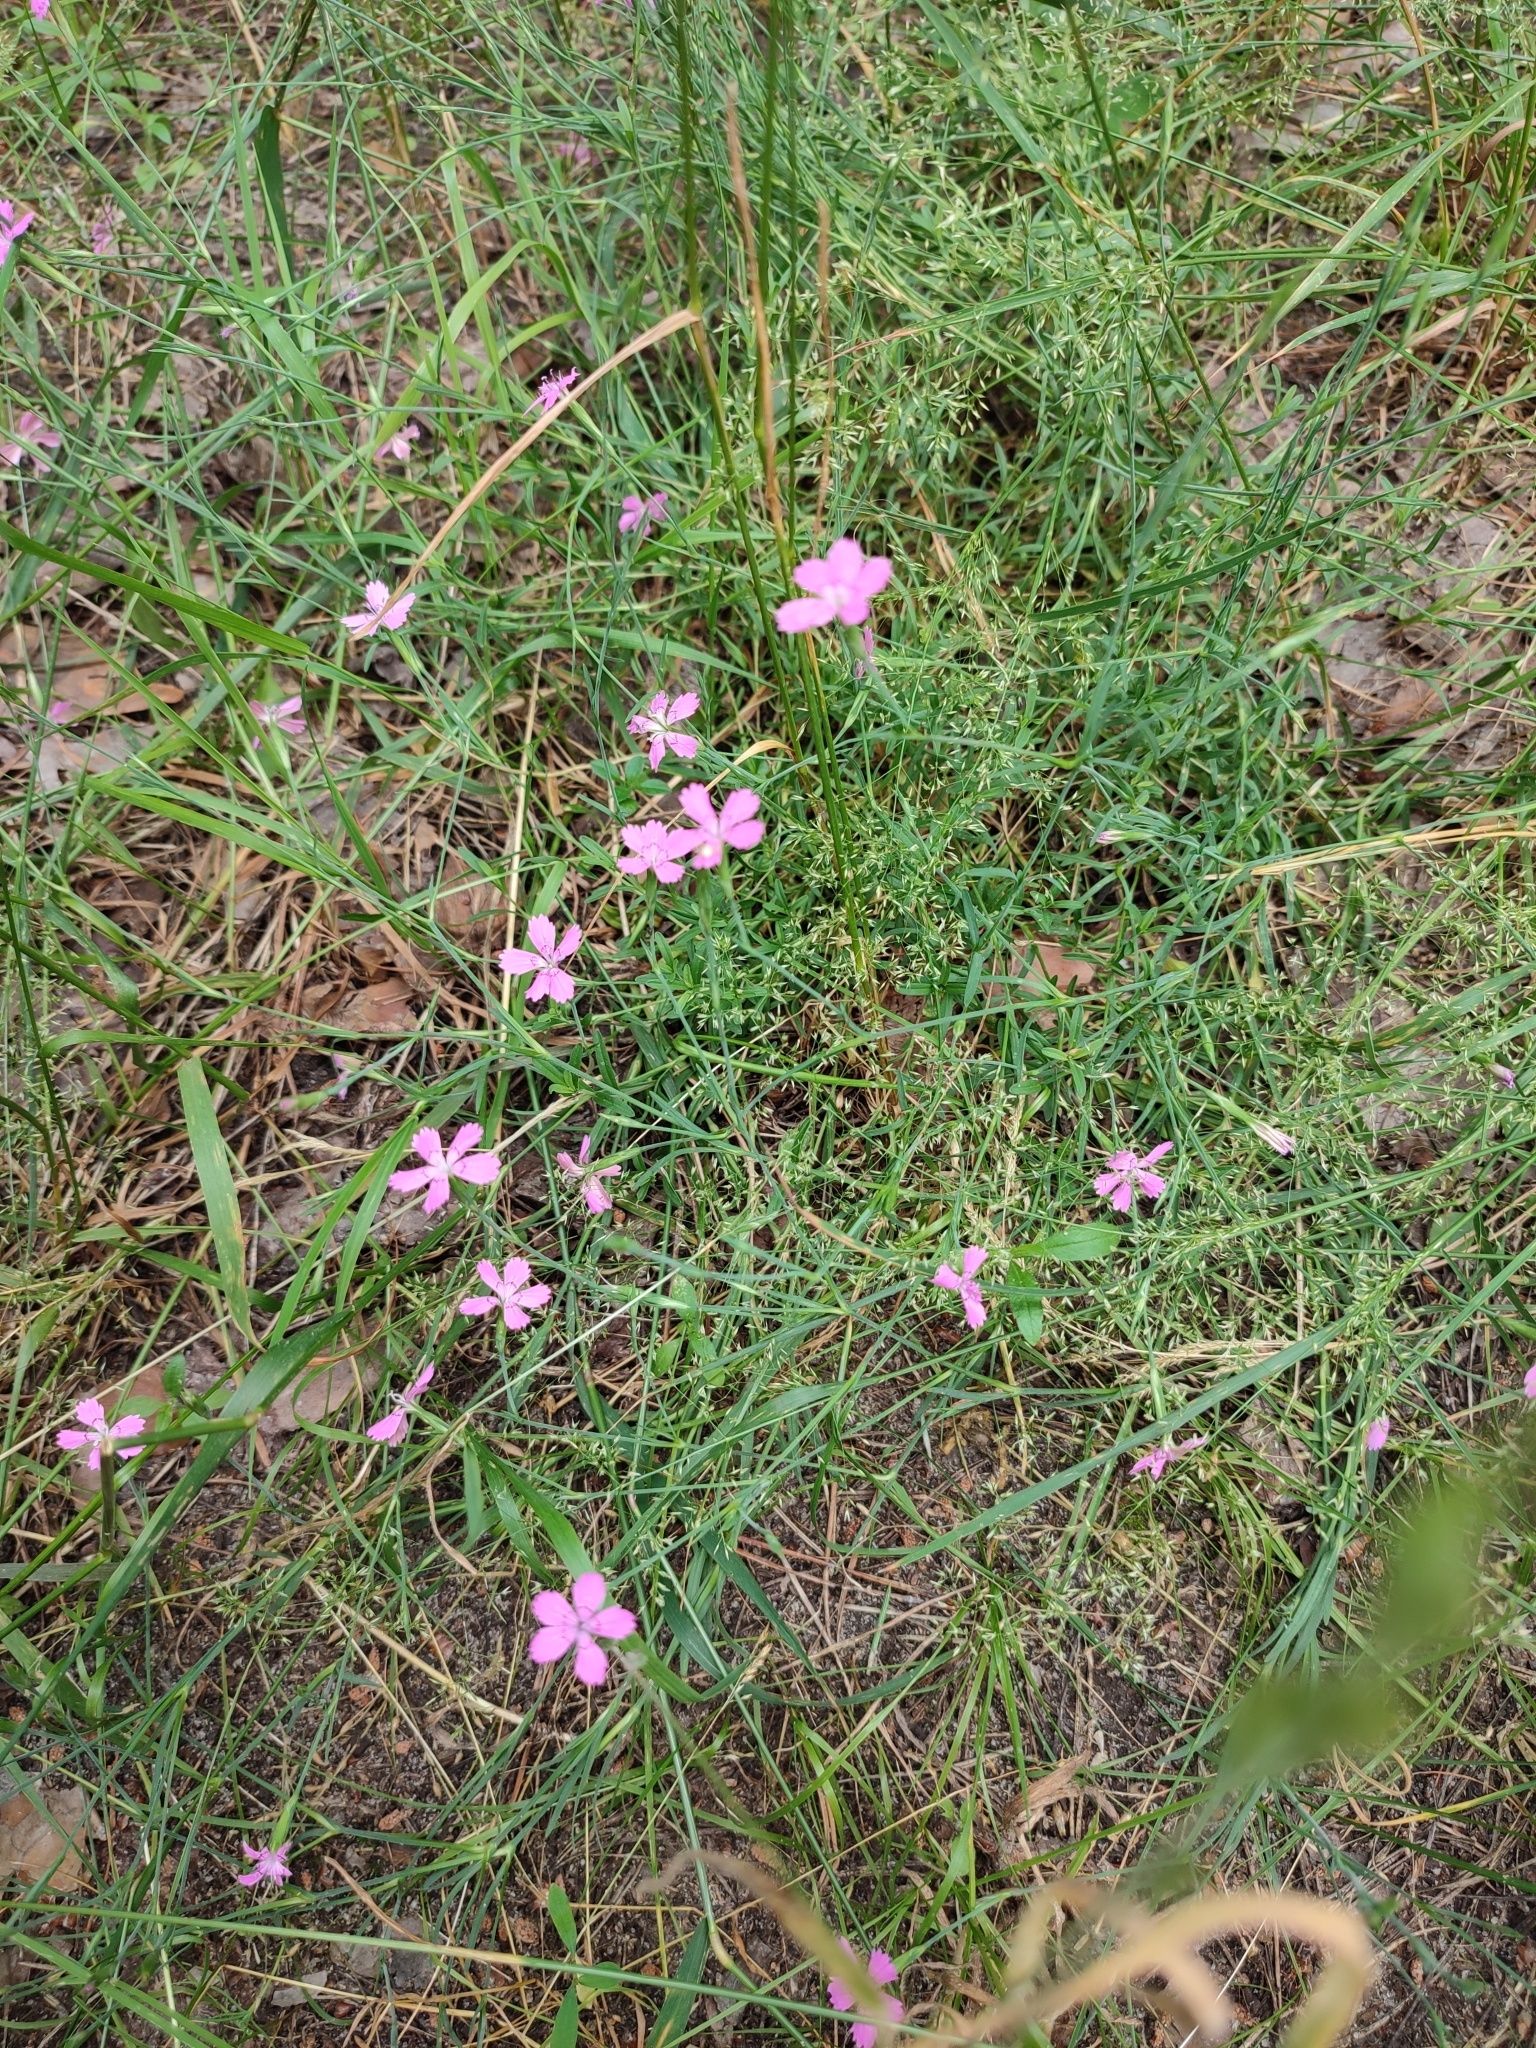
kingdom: Plantae
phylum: Tracheophyta
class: Magnoliopsida
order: Caryophyllales
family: Caryophyllaceae
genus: Dianthus
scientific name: Dianthus deltoides
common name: Maiden pink
